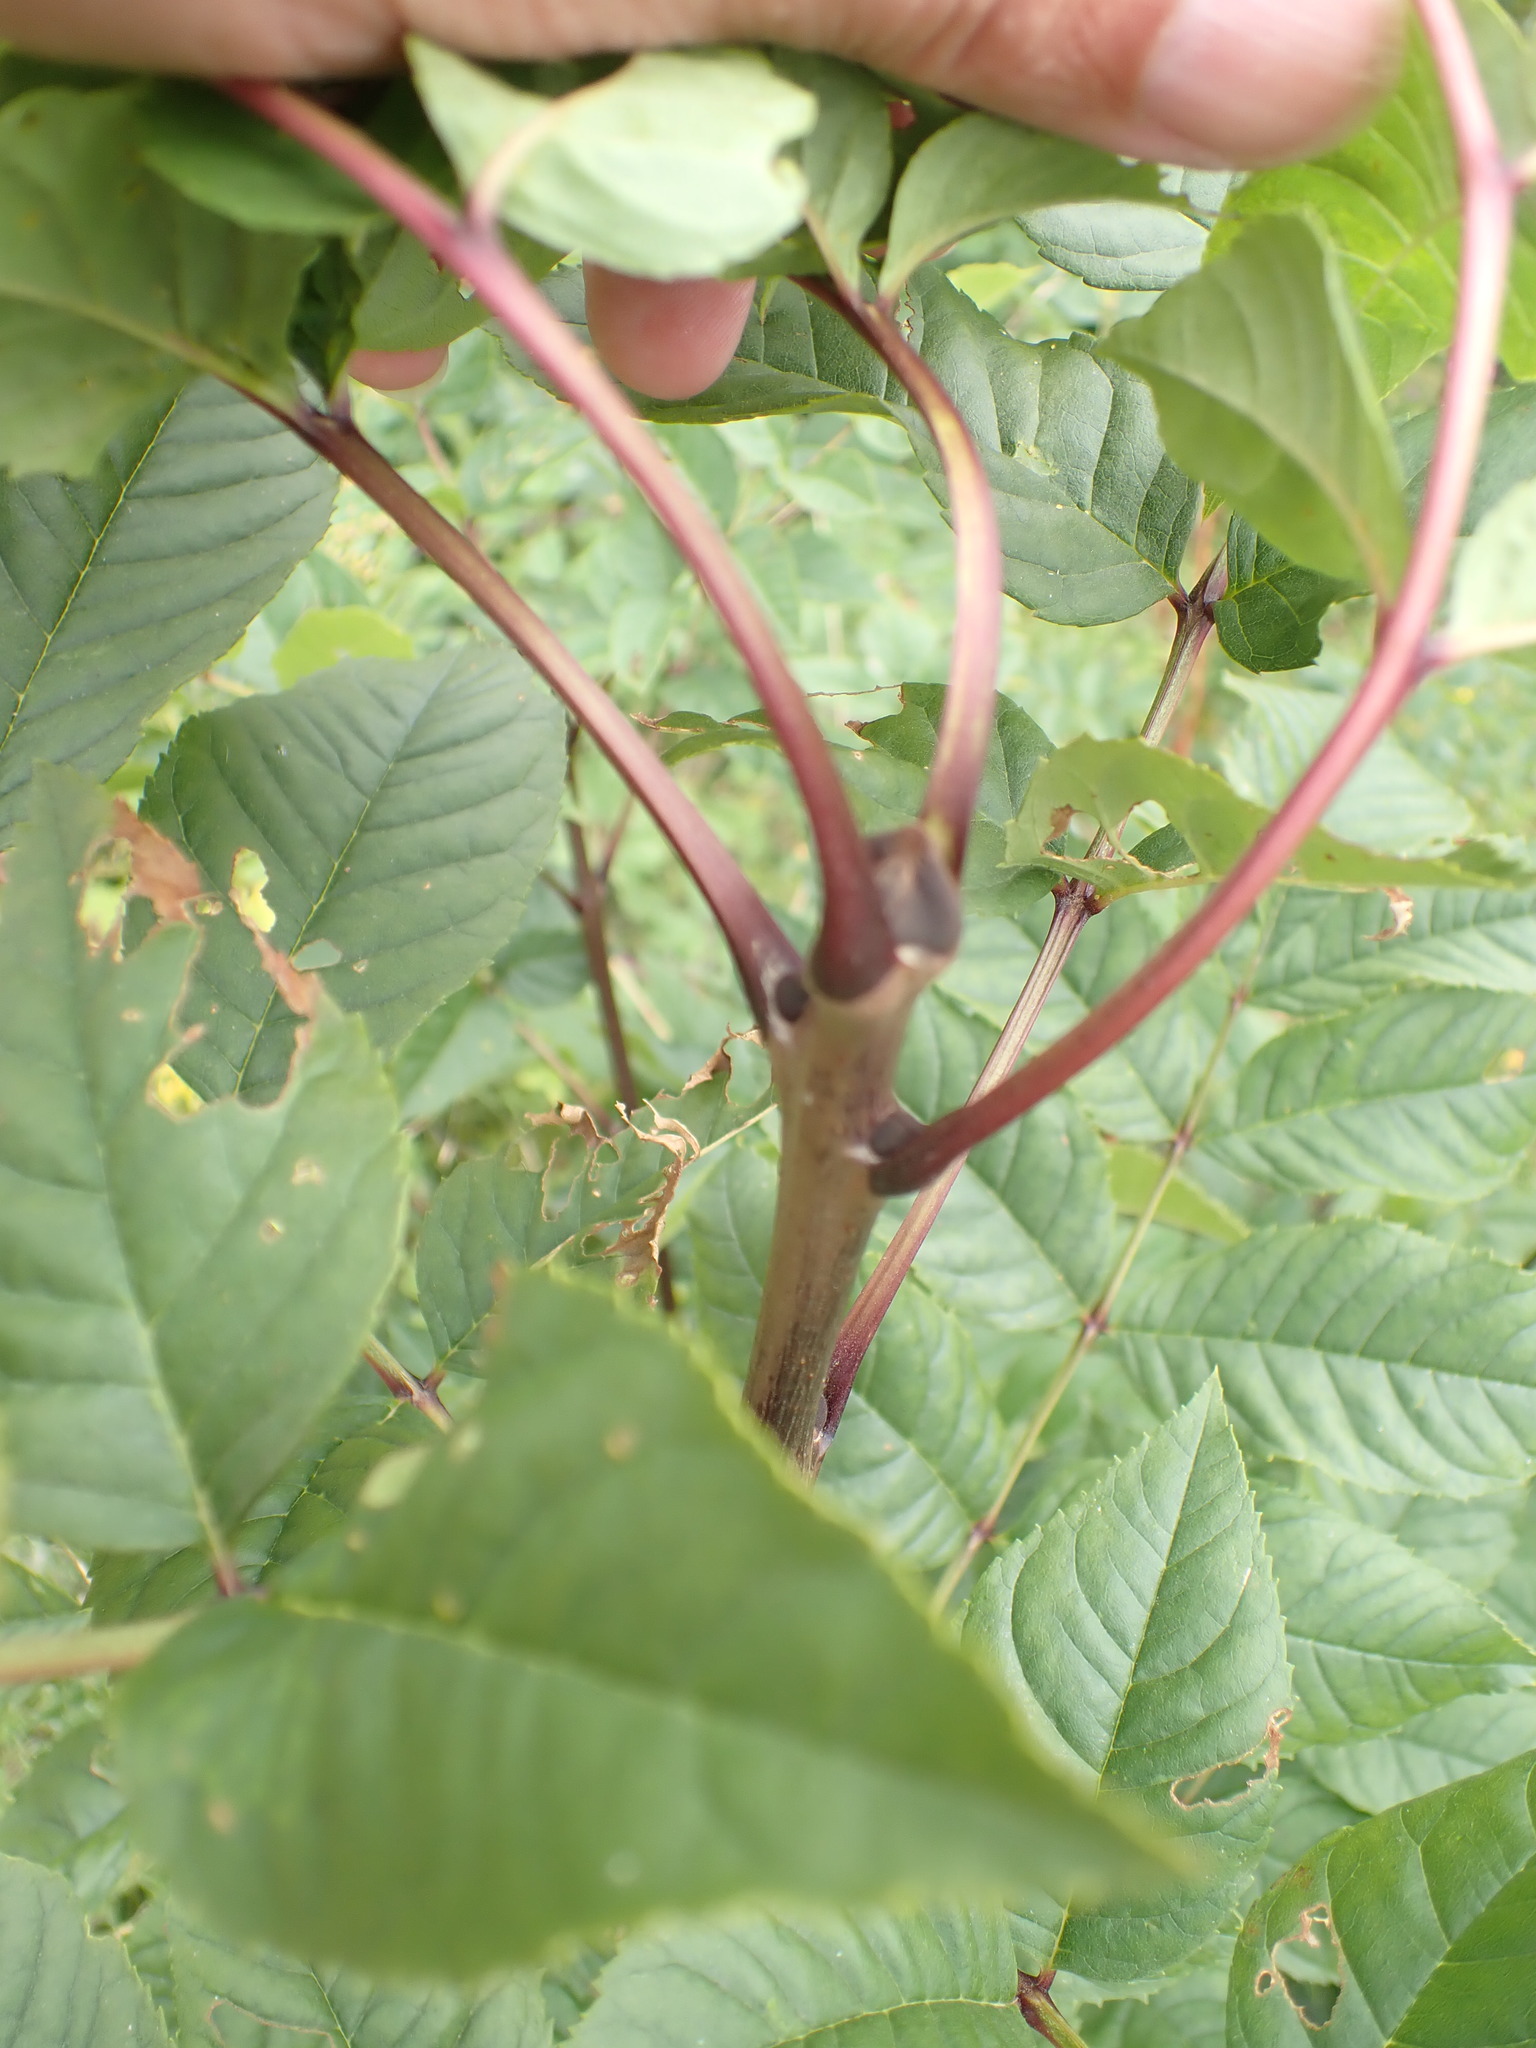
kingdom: Plantae
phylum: Tracheophyta
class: Magnoliopsida
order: Lamiales
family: Oleaceae
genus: Fraxinus
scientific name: Fraxinus excelsior
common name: European ash
